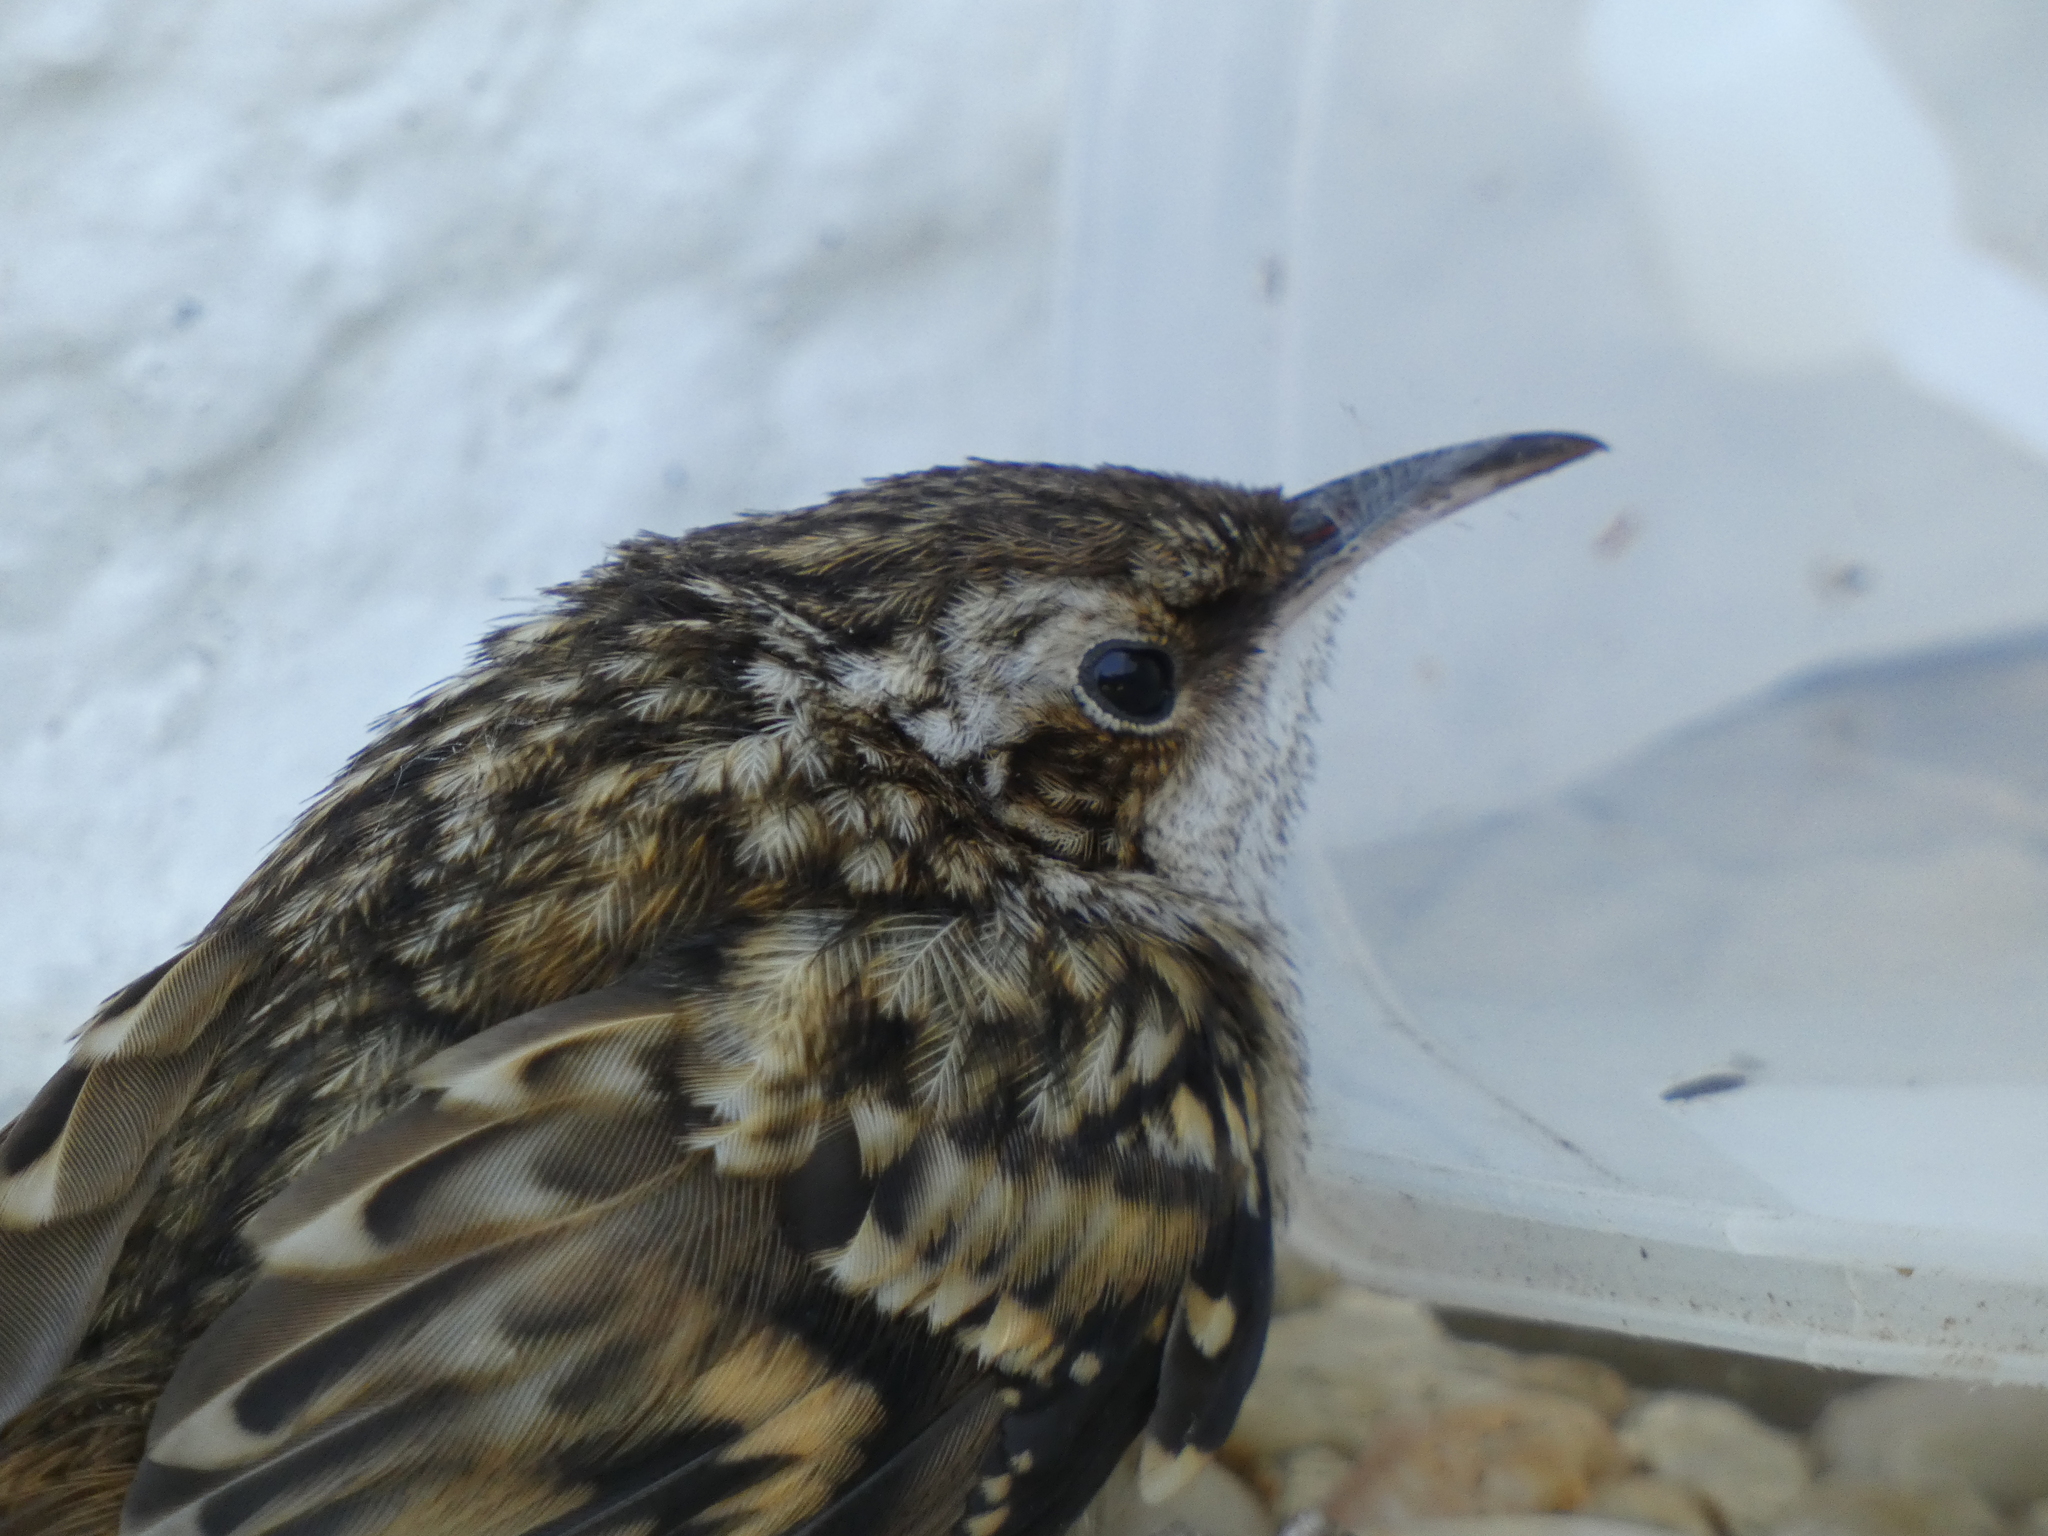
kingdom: Animalia
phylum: Chordata
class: Aves
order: Passeriformes
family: Certhiidae
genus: Certhia
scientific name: Certhia brachydactyla
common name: Short-toed treecreeper
